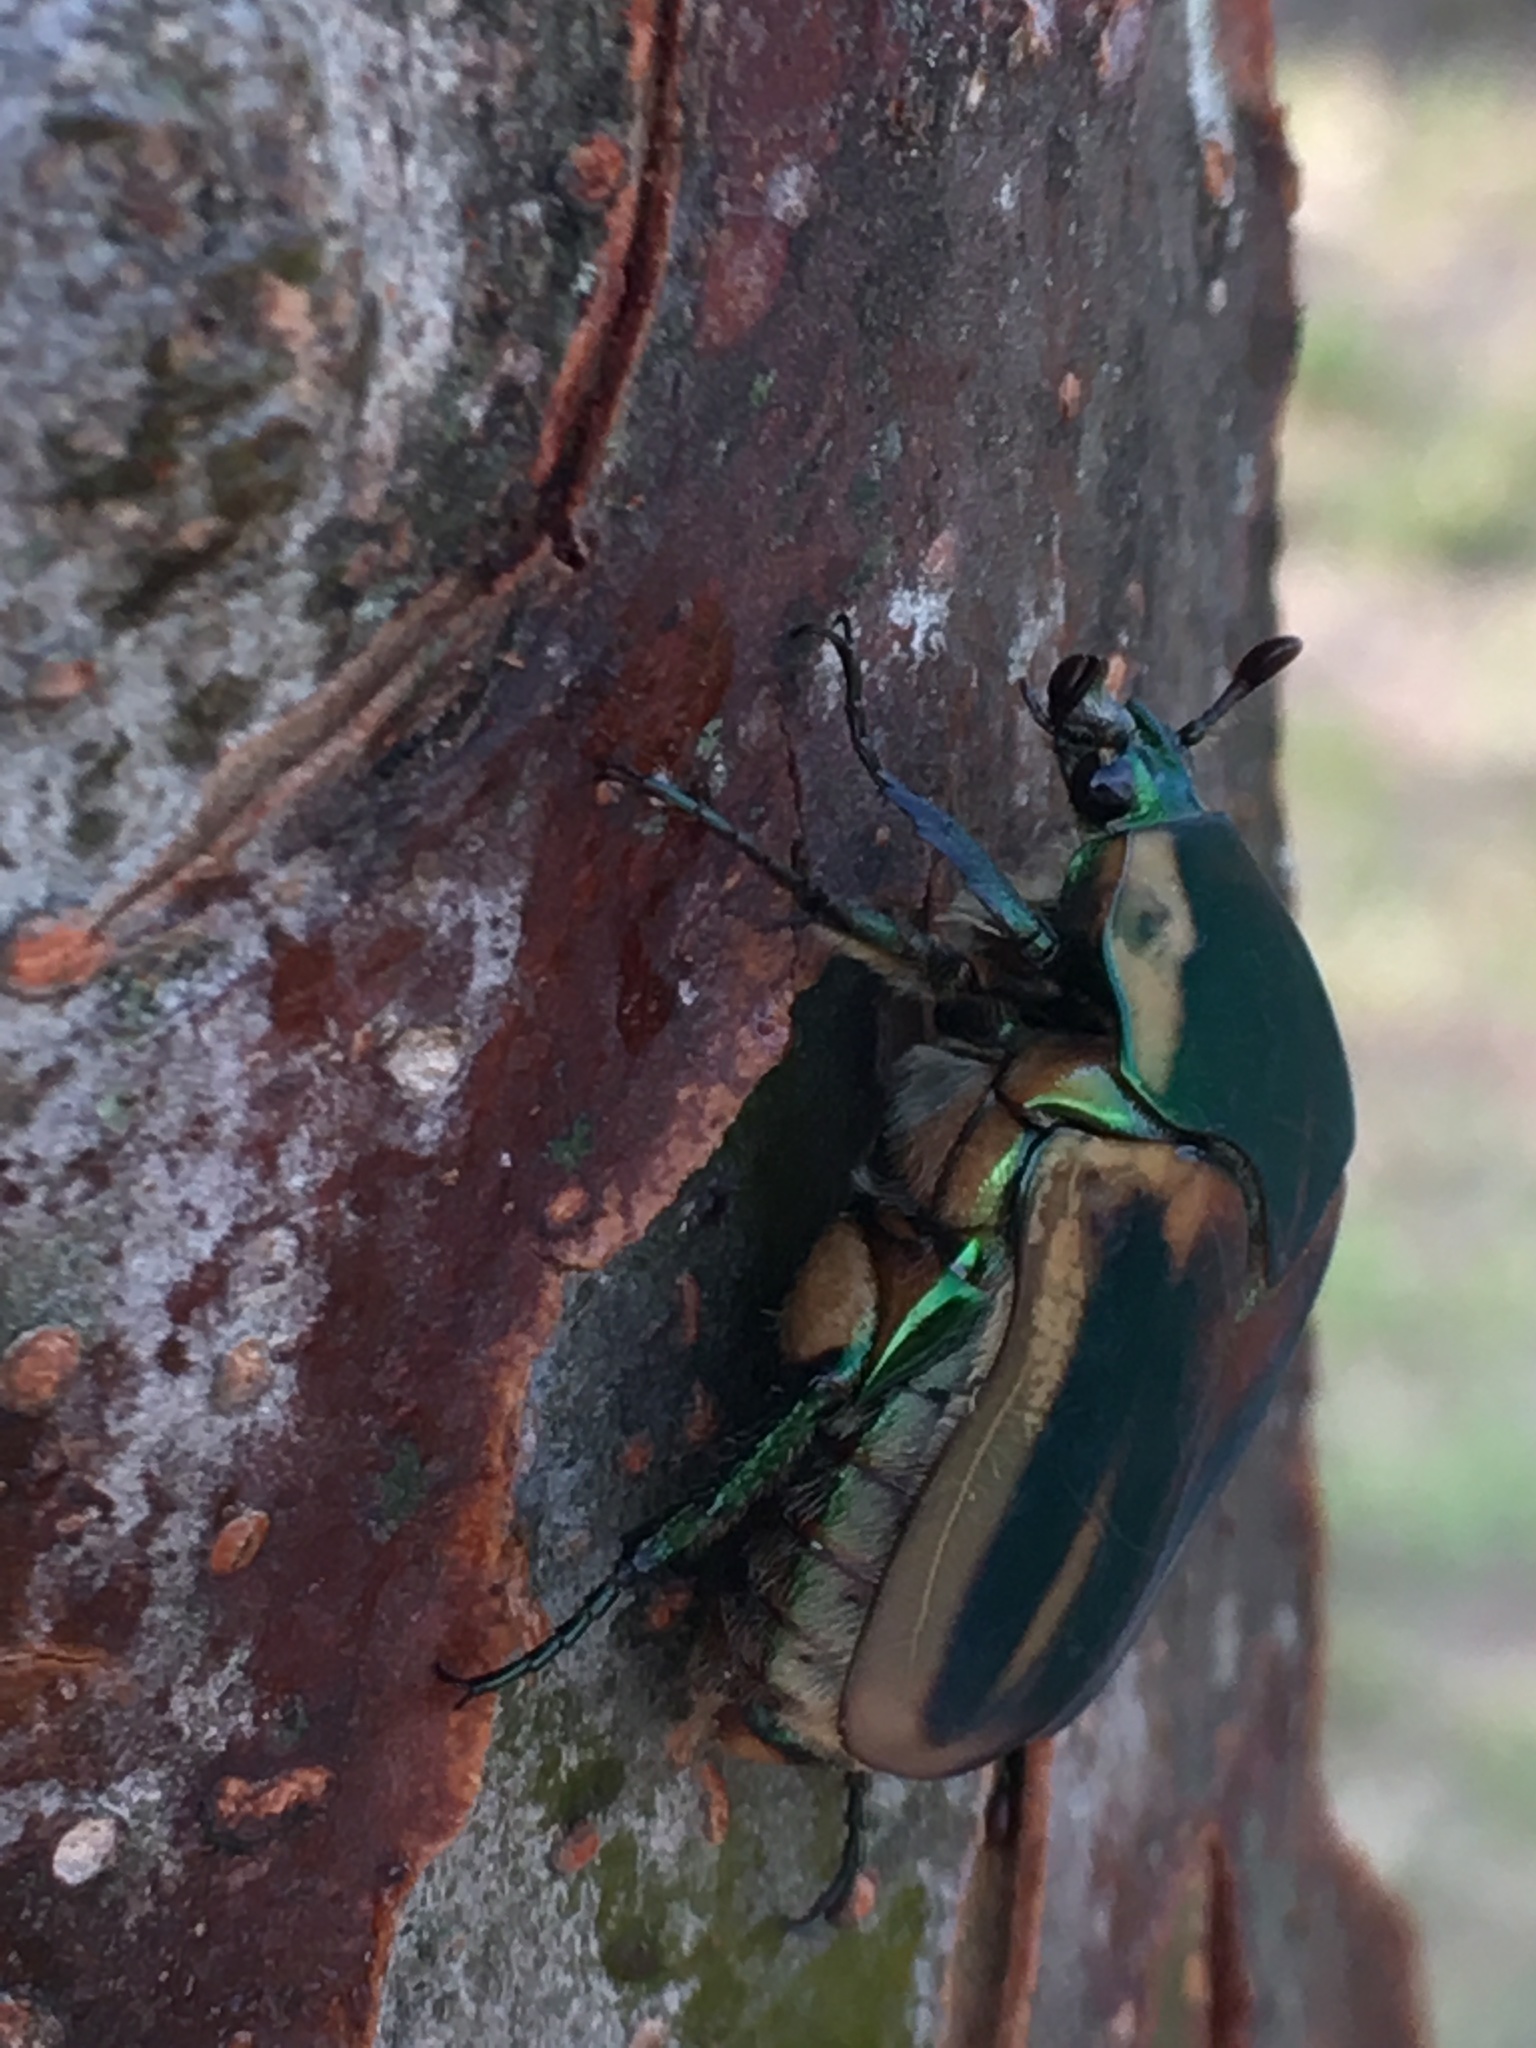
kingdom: Animalia
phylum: Arthropoda
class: Insecta
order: Coleoptera
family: Scarabaeidae
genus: Cotinis
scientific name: Cotinis nitida
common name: Common green june beetle
